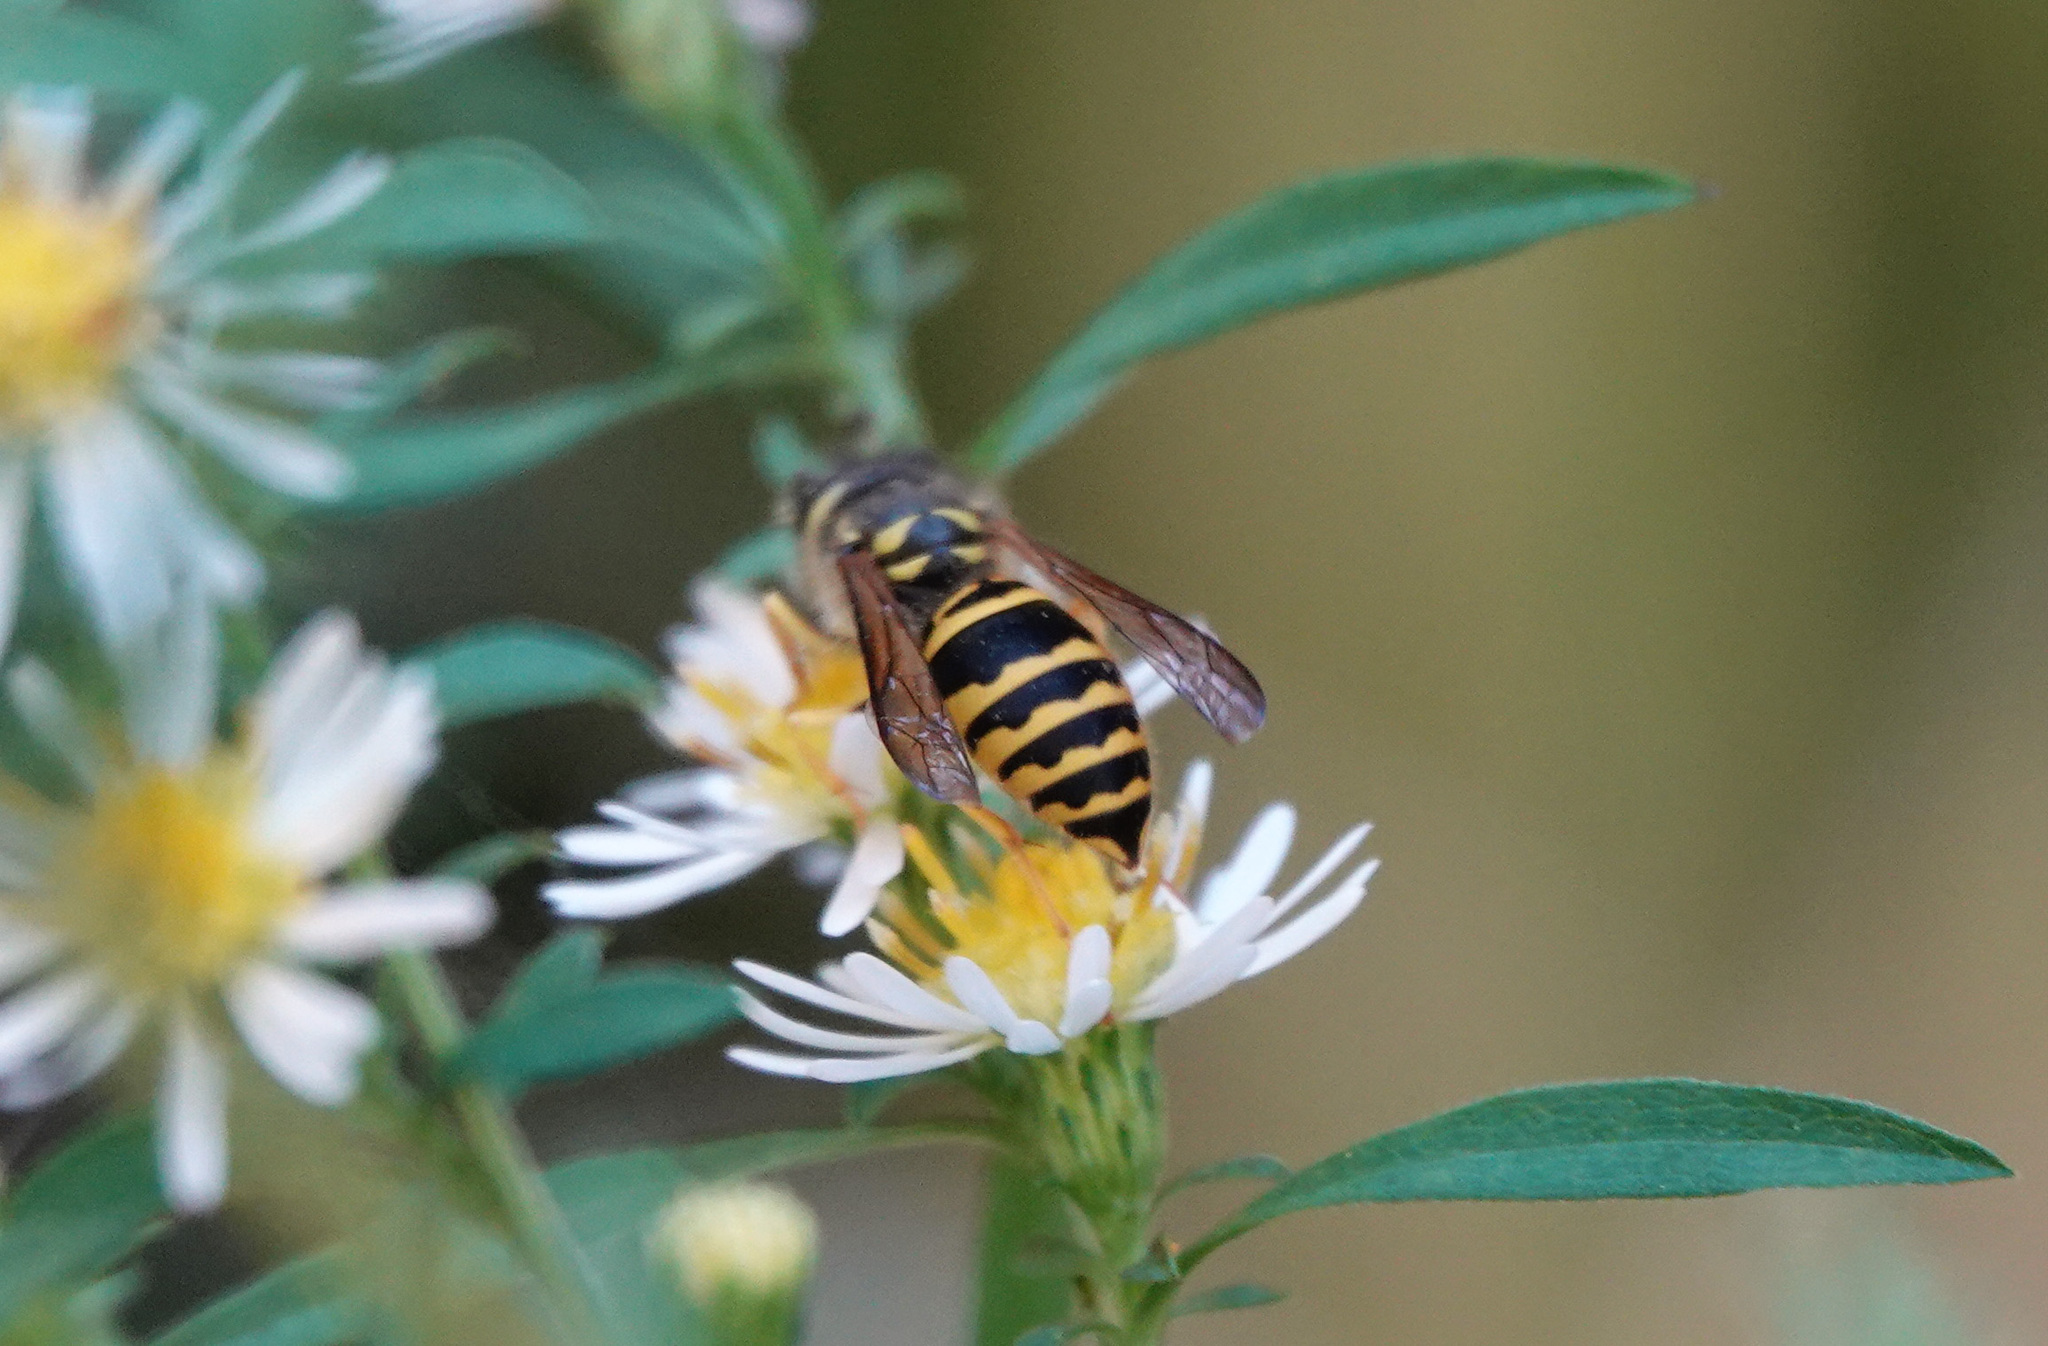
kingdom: Animalia
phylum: Arthropoda
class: Insecta
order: Hymenoptera
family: Vespidae
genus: Vespula
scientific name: Vespula maculifrons
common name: Eastern yellowjacket
